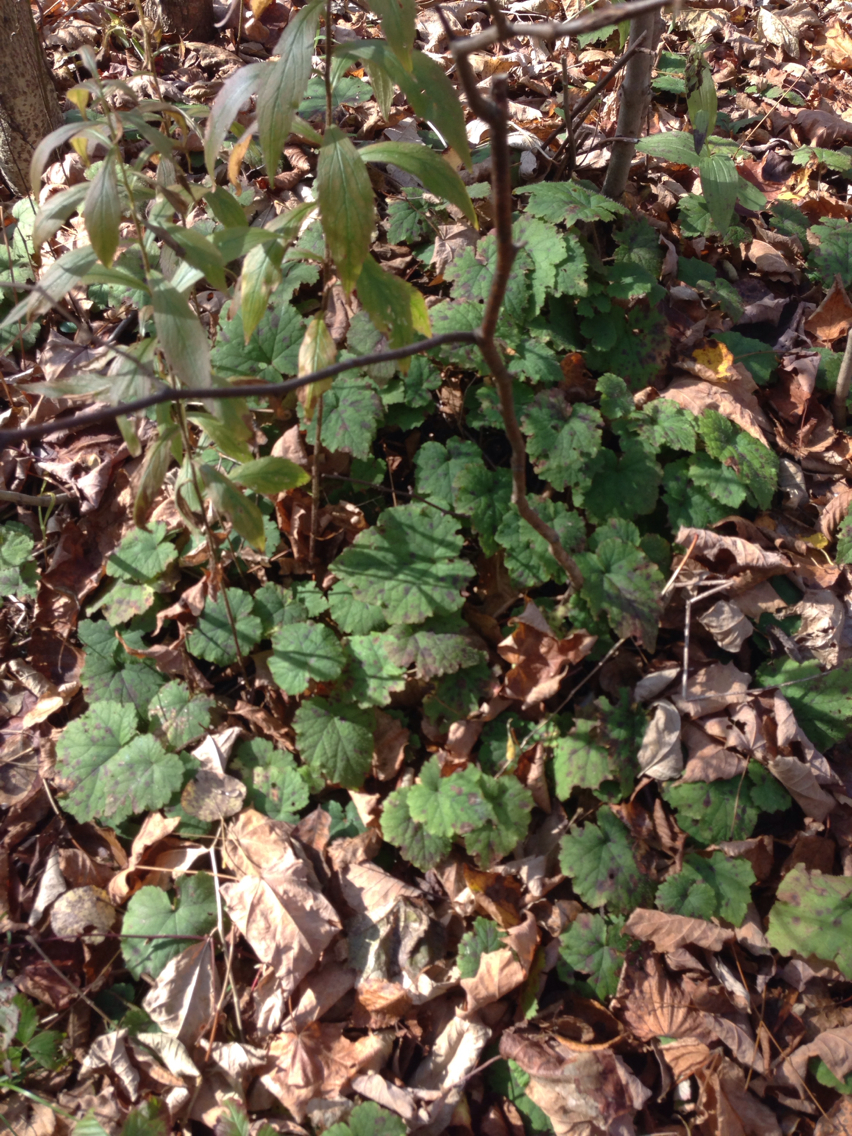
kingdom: Plantae
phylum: Tracheophyta
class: Magnoliopsida
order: Saxifragales
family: Saxifragaceae
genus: Tiarella
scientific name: Tiarella stolonifera
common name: Stoloniferous foamflower
